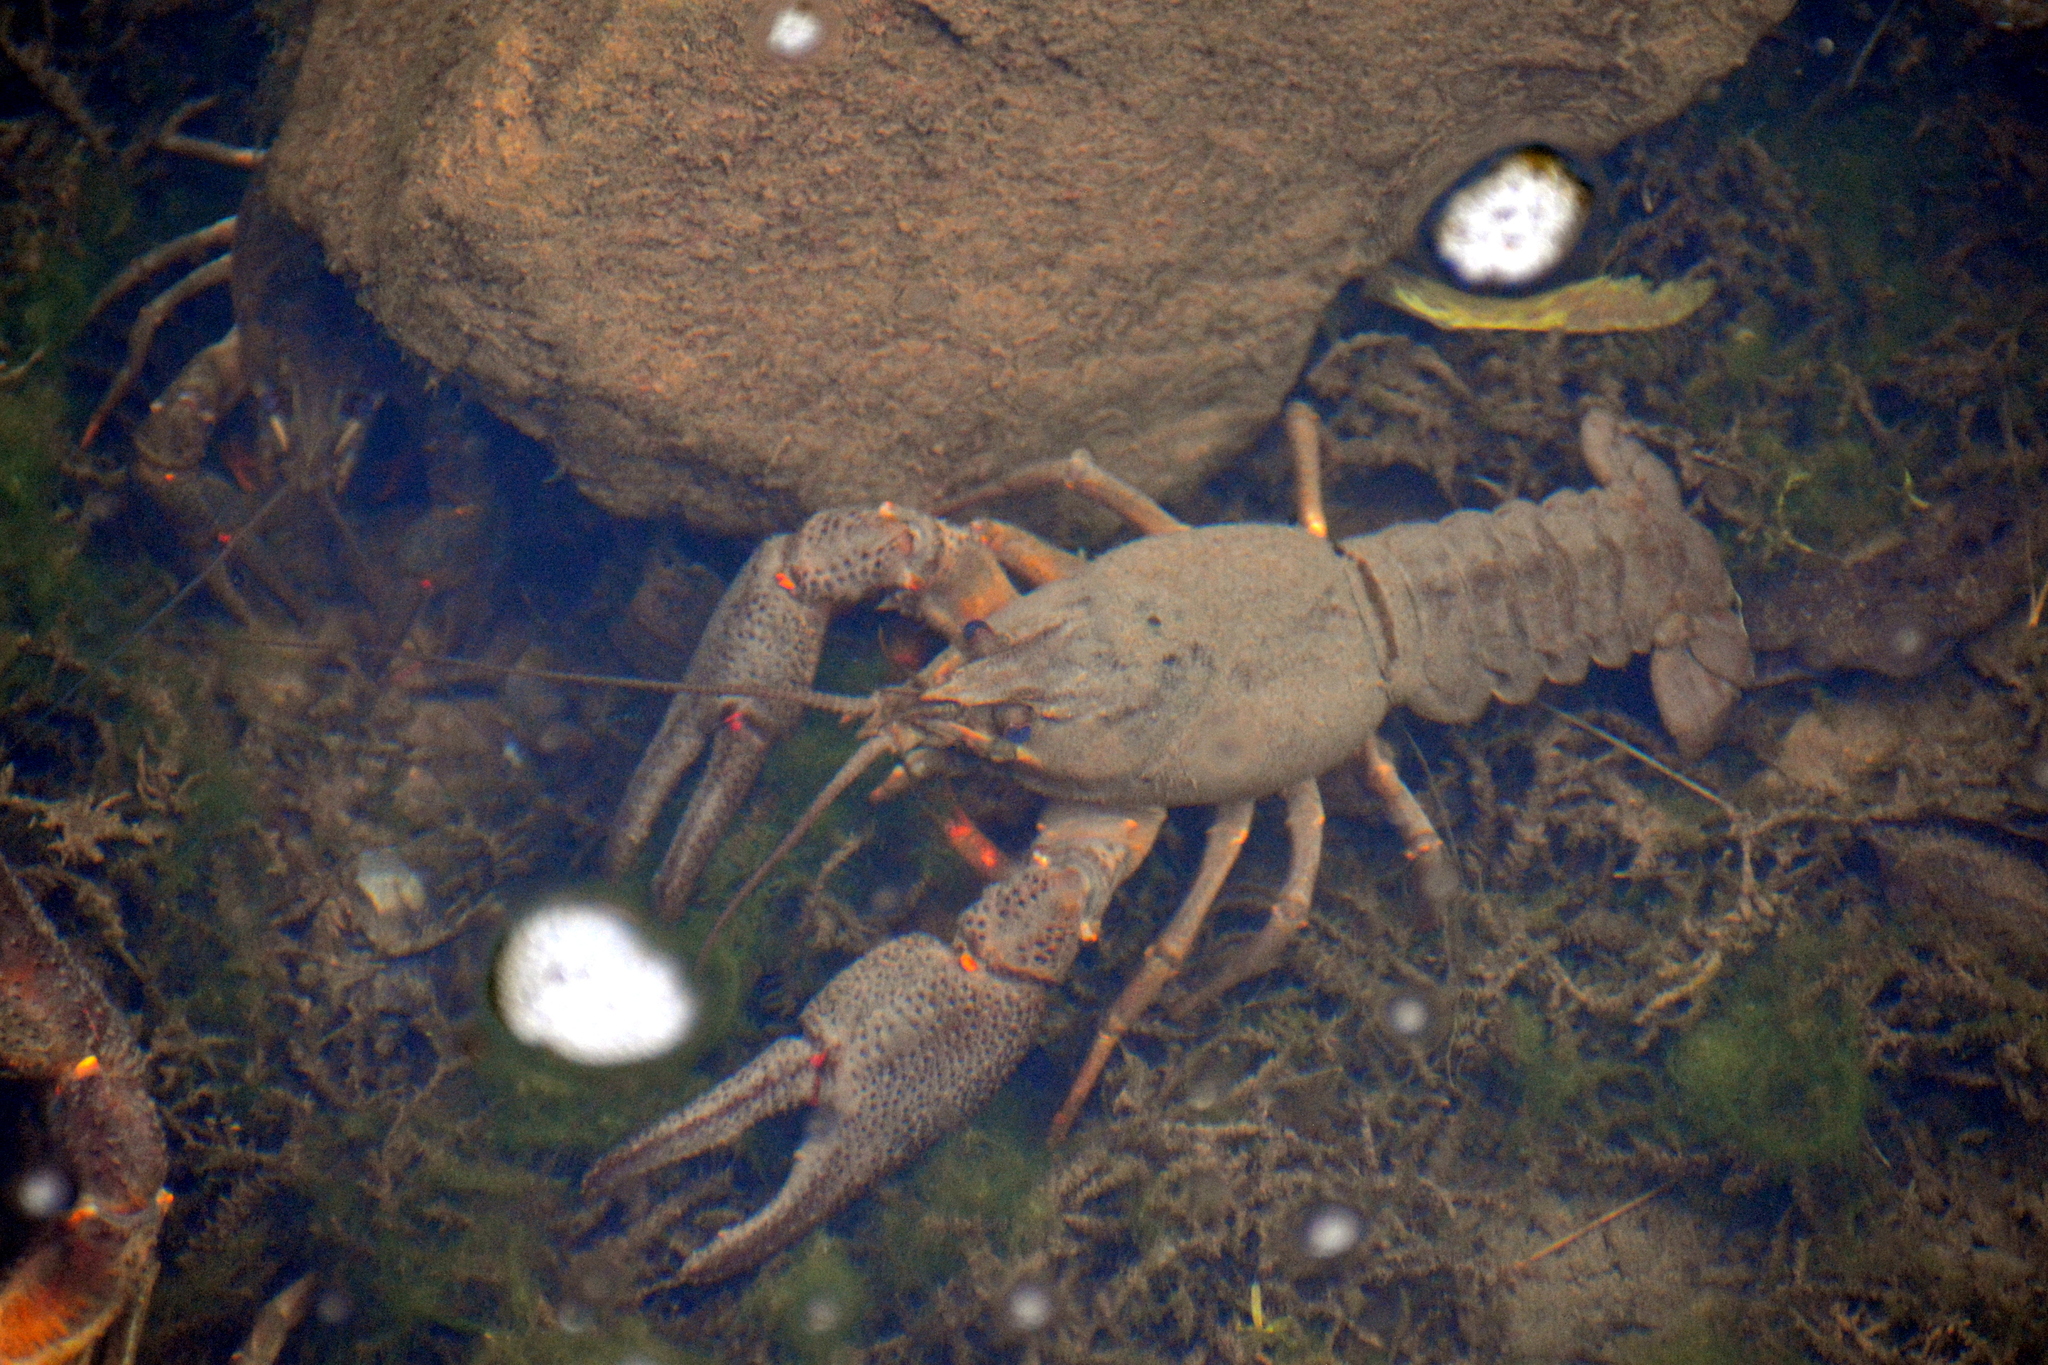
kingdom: Animalia
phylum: Arthropoda
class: Malacostraca
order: Decapoda
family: Astacidae
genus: Astacus
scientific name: Astacus astacus
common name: Noble crayfish
